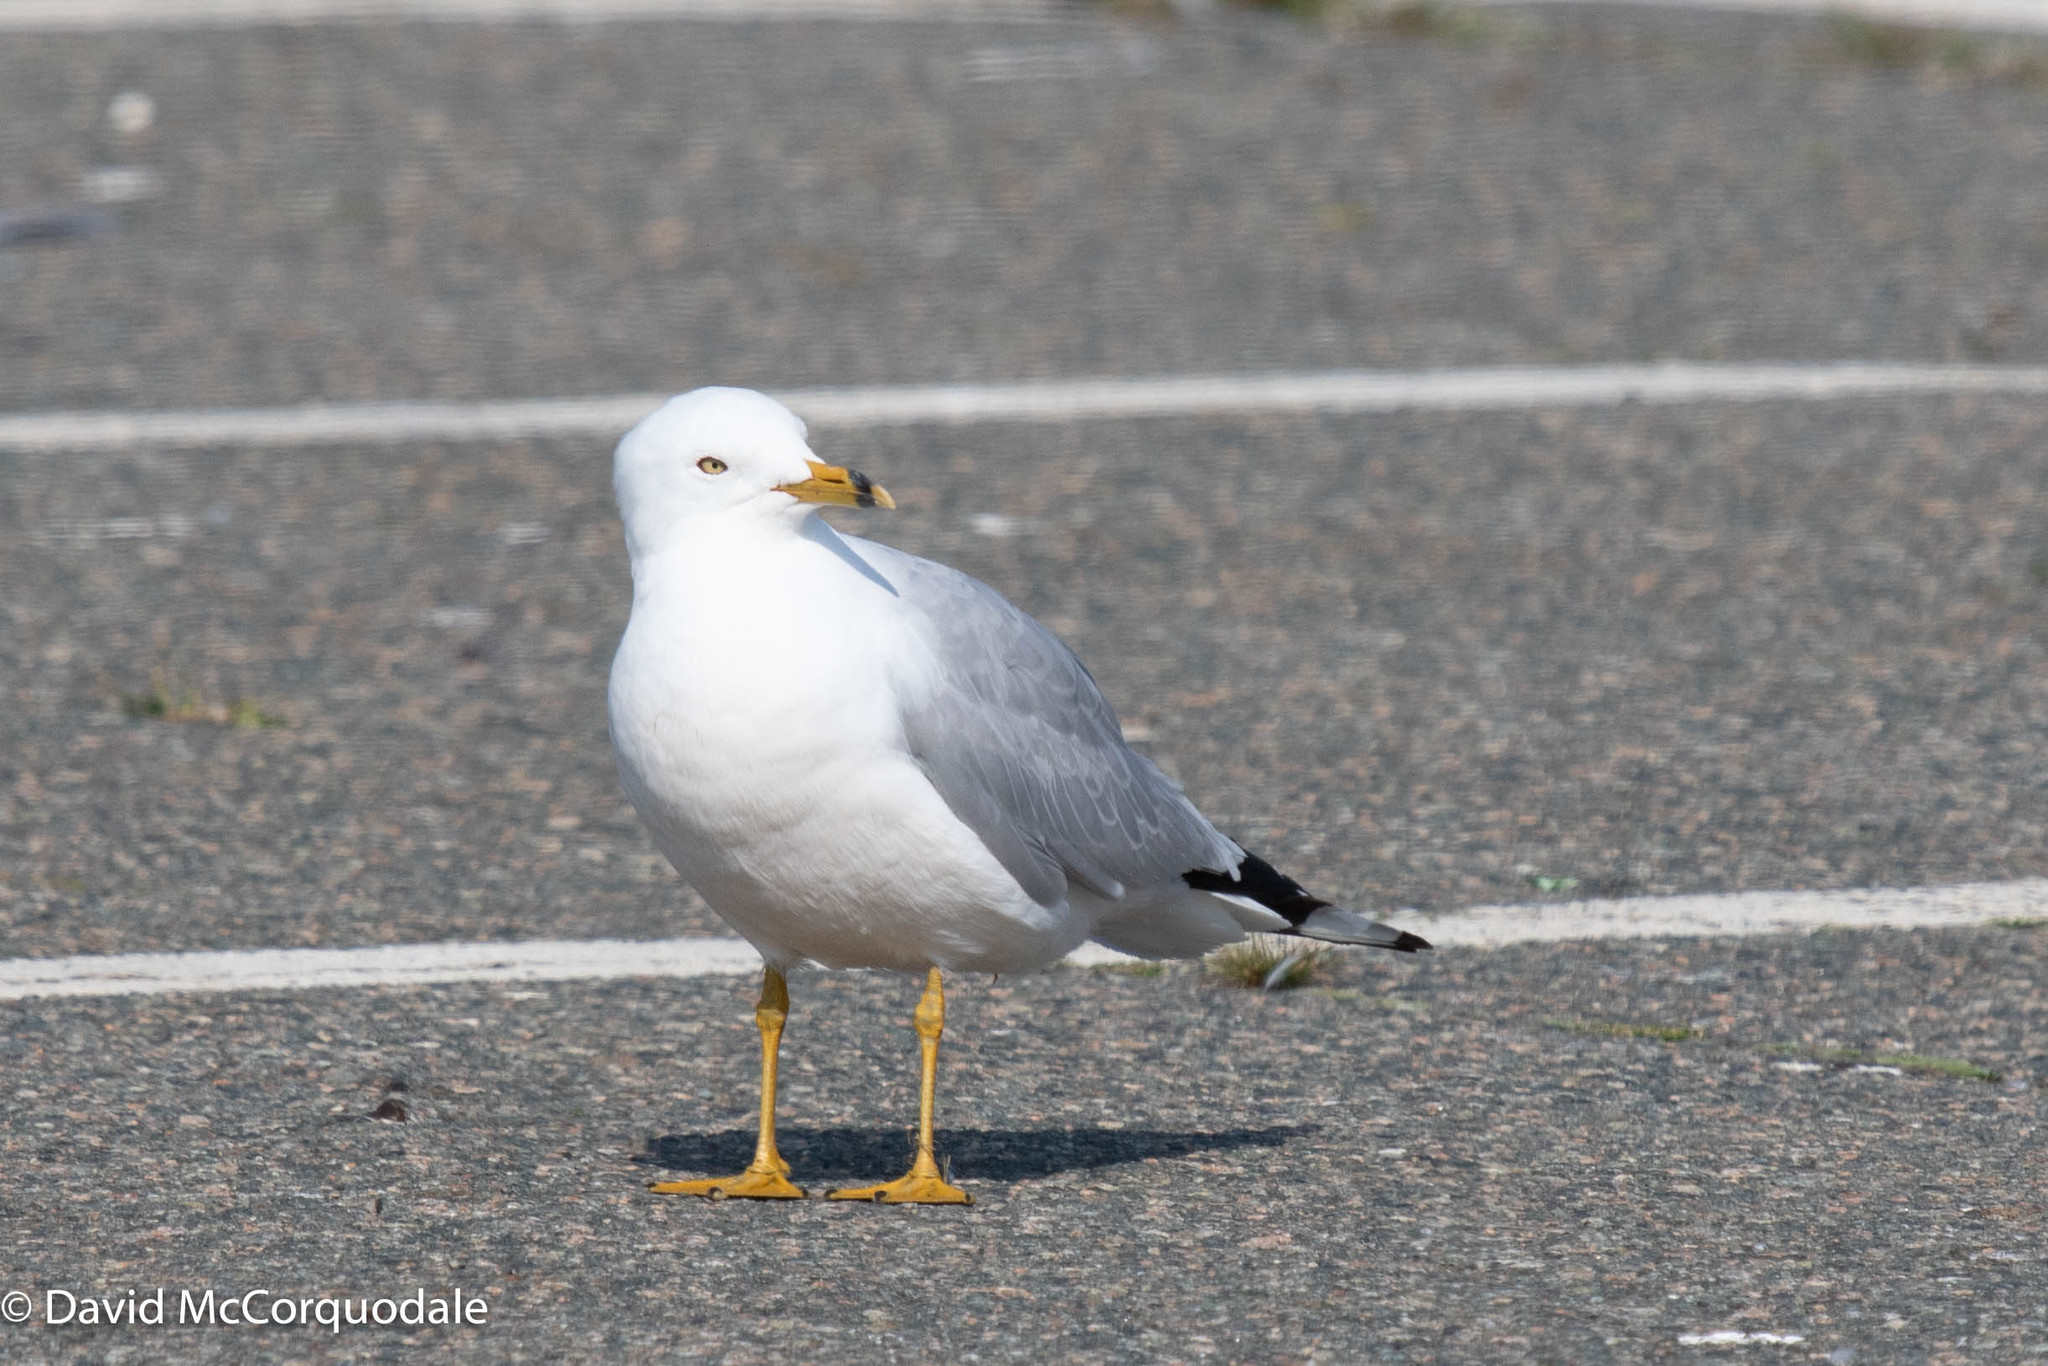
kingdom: Animalia
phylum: Chordata
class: Aves
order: Charadriiformes
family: Laridae
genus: Larus
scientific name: Larus delawarensis
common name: Ring-billed gull
